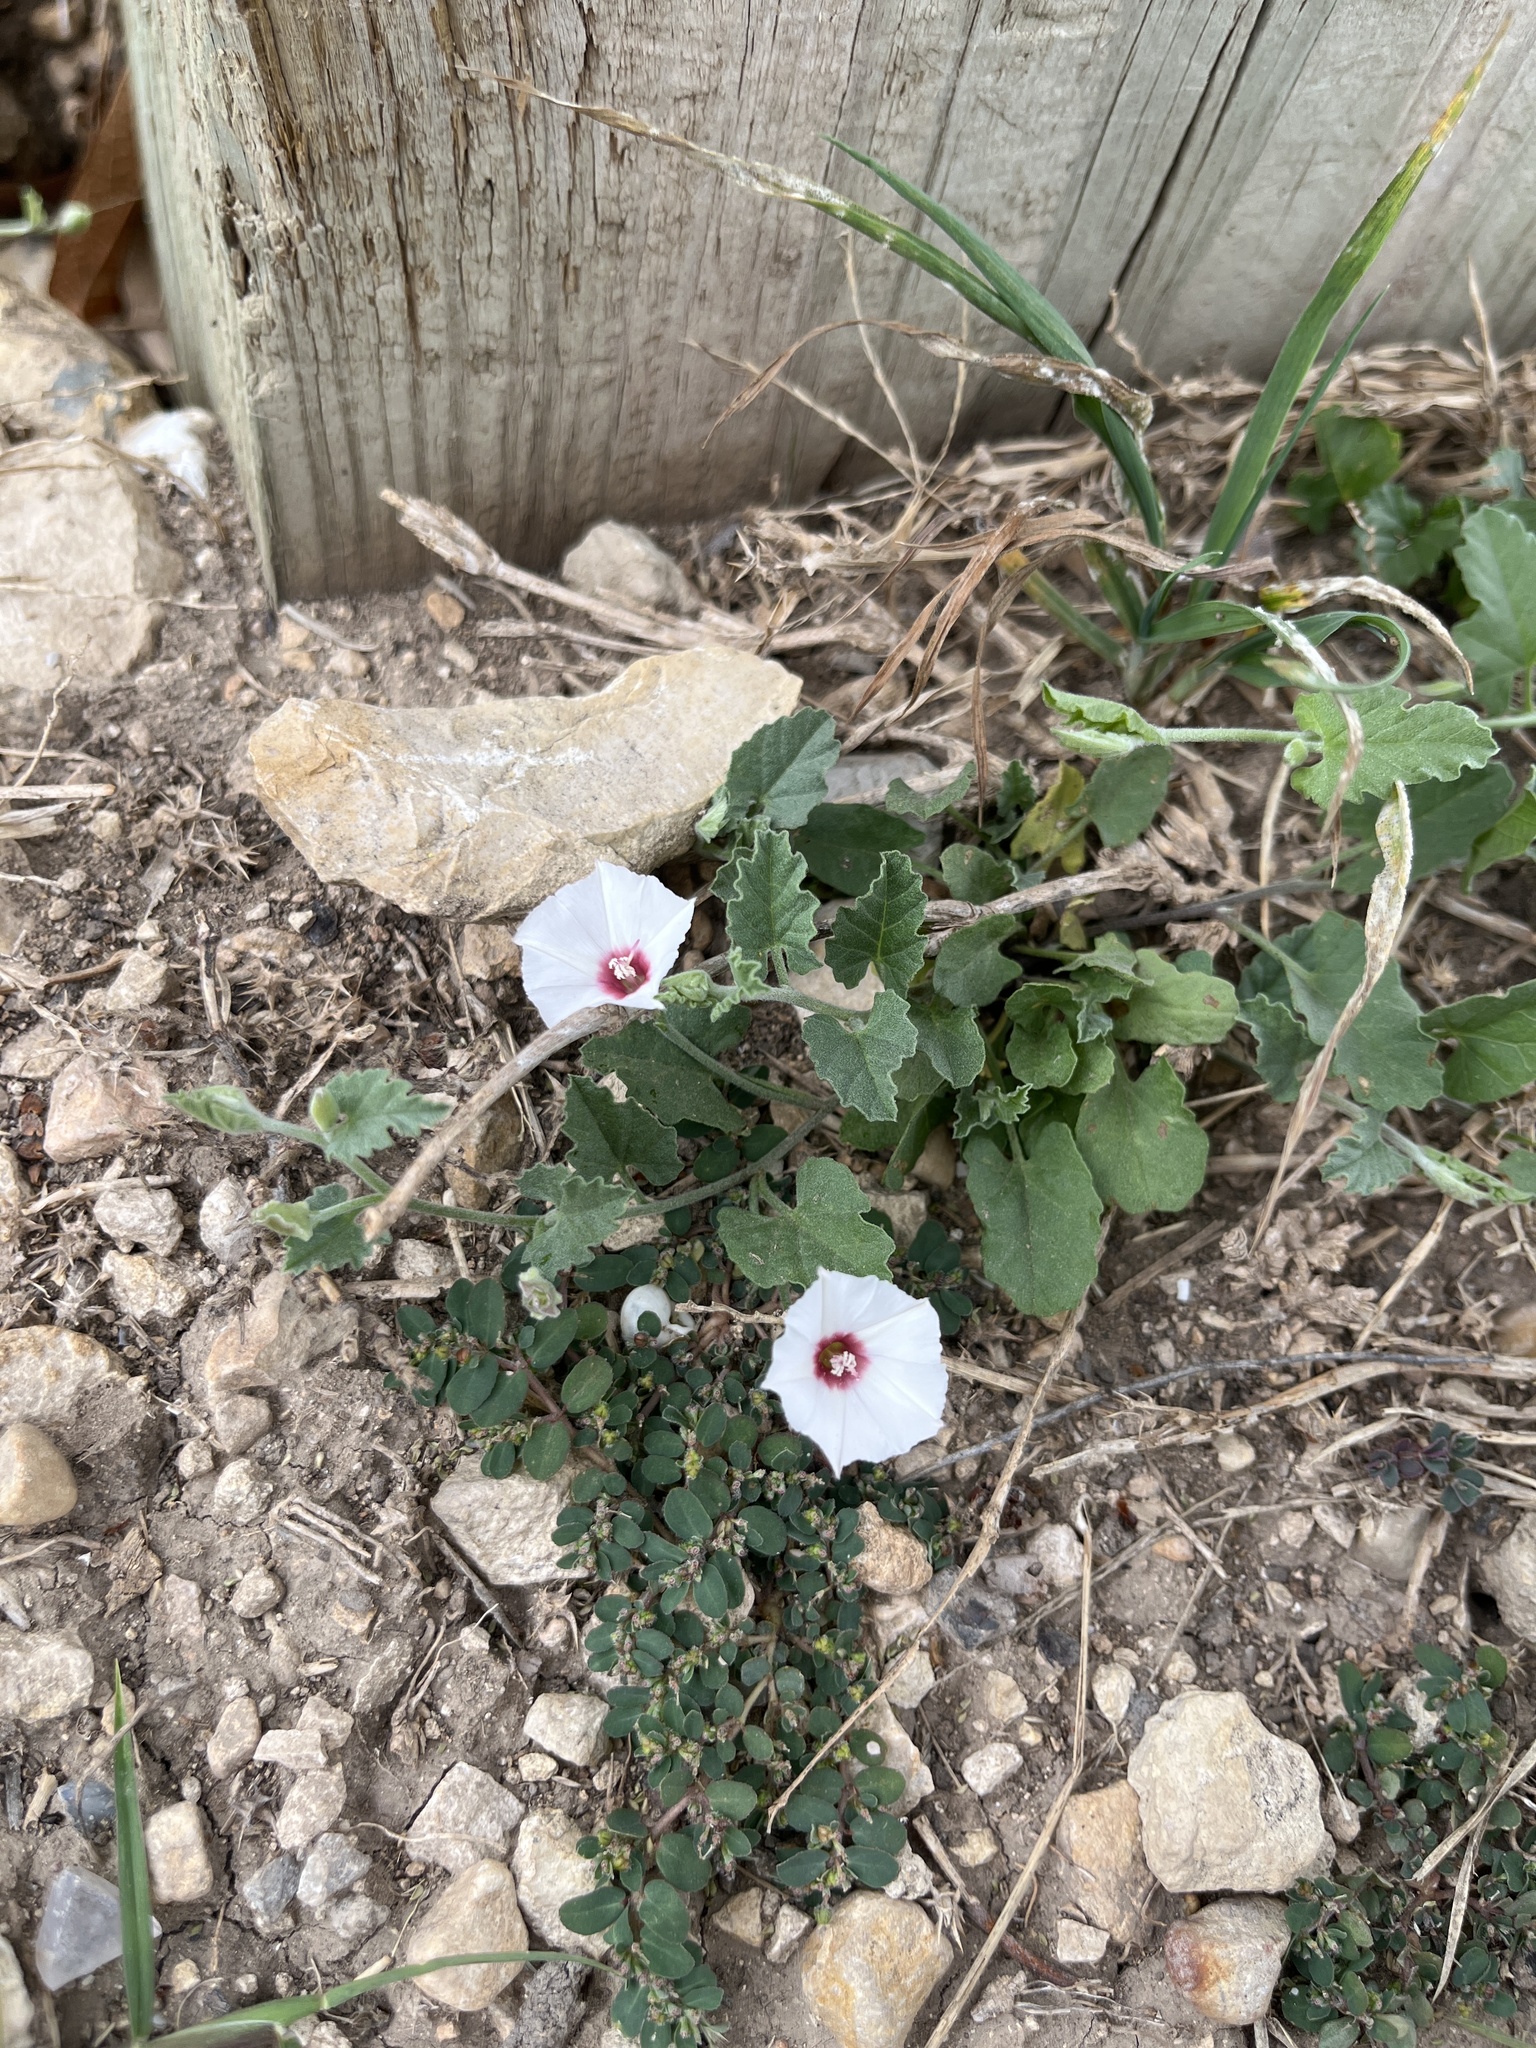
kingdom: Plantae
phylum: Tracheophyta
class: Magnoliopsida
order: Solanales
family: Convolvulaceae
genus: Convolvulus
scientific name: Convolvulus equitans
